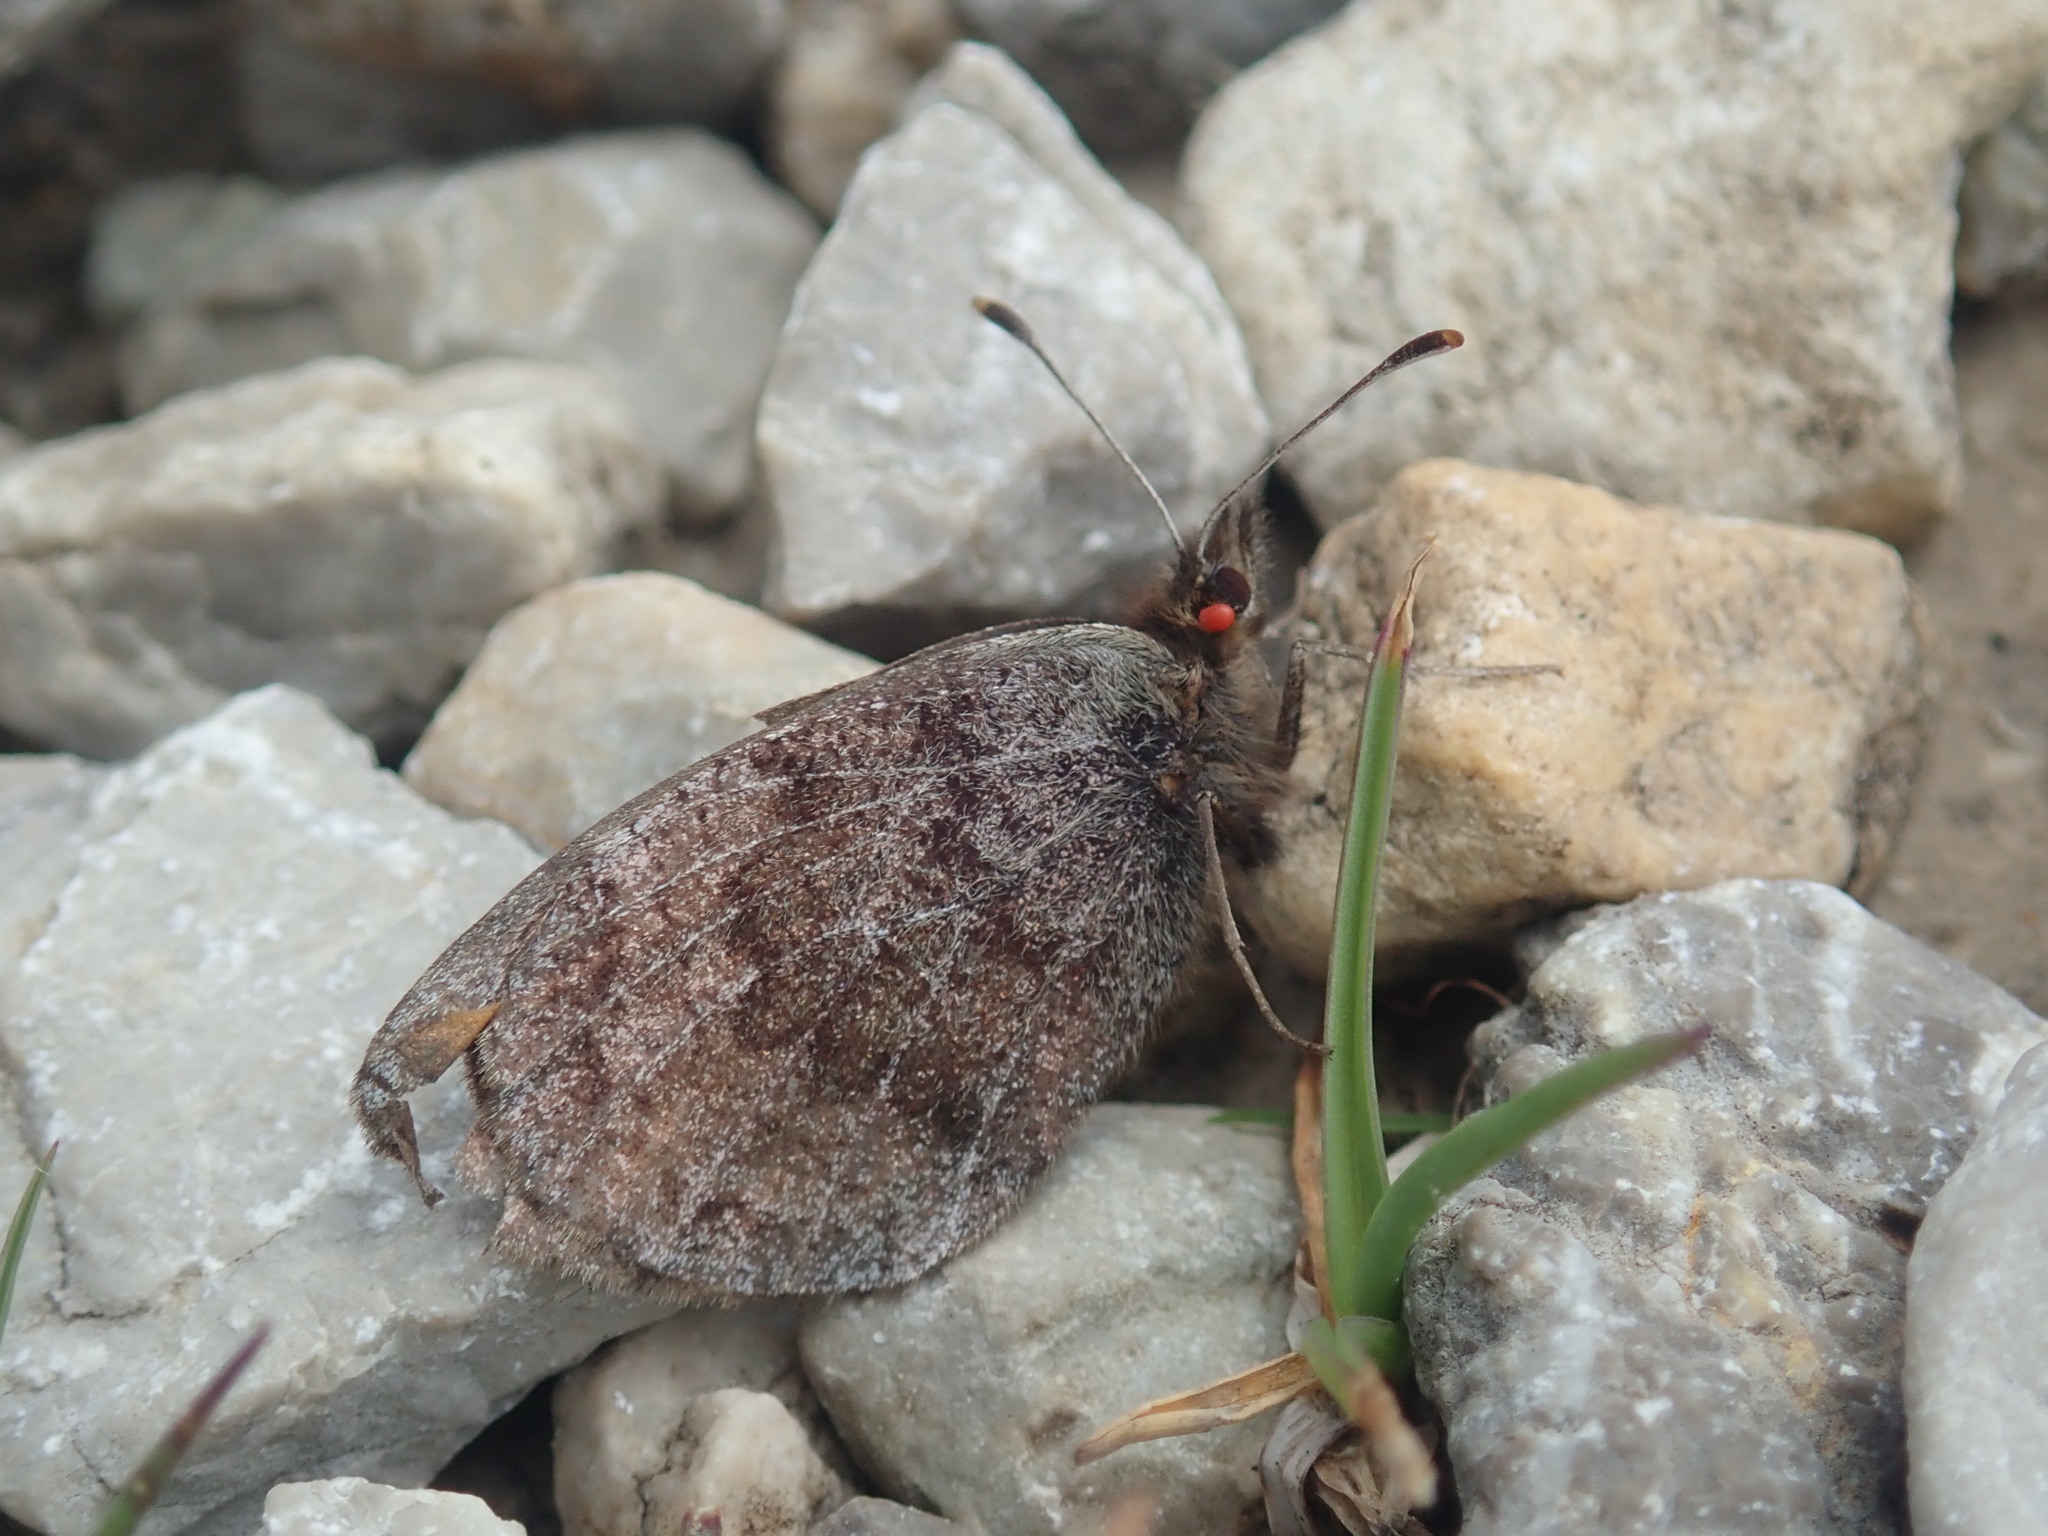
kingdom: Animalia
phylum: Arthropoda
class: Insecta
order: Lepidoptera
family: Nymphalidae
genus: Erebia
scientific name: Erebia gorge
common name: Silky ringlet
